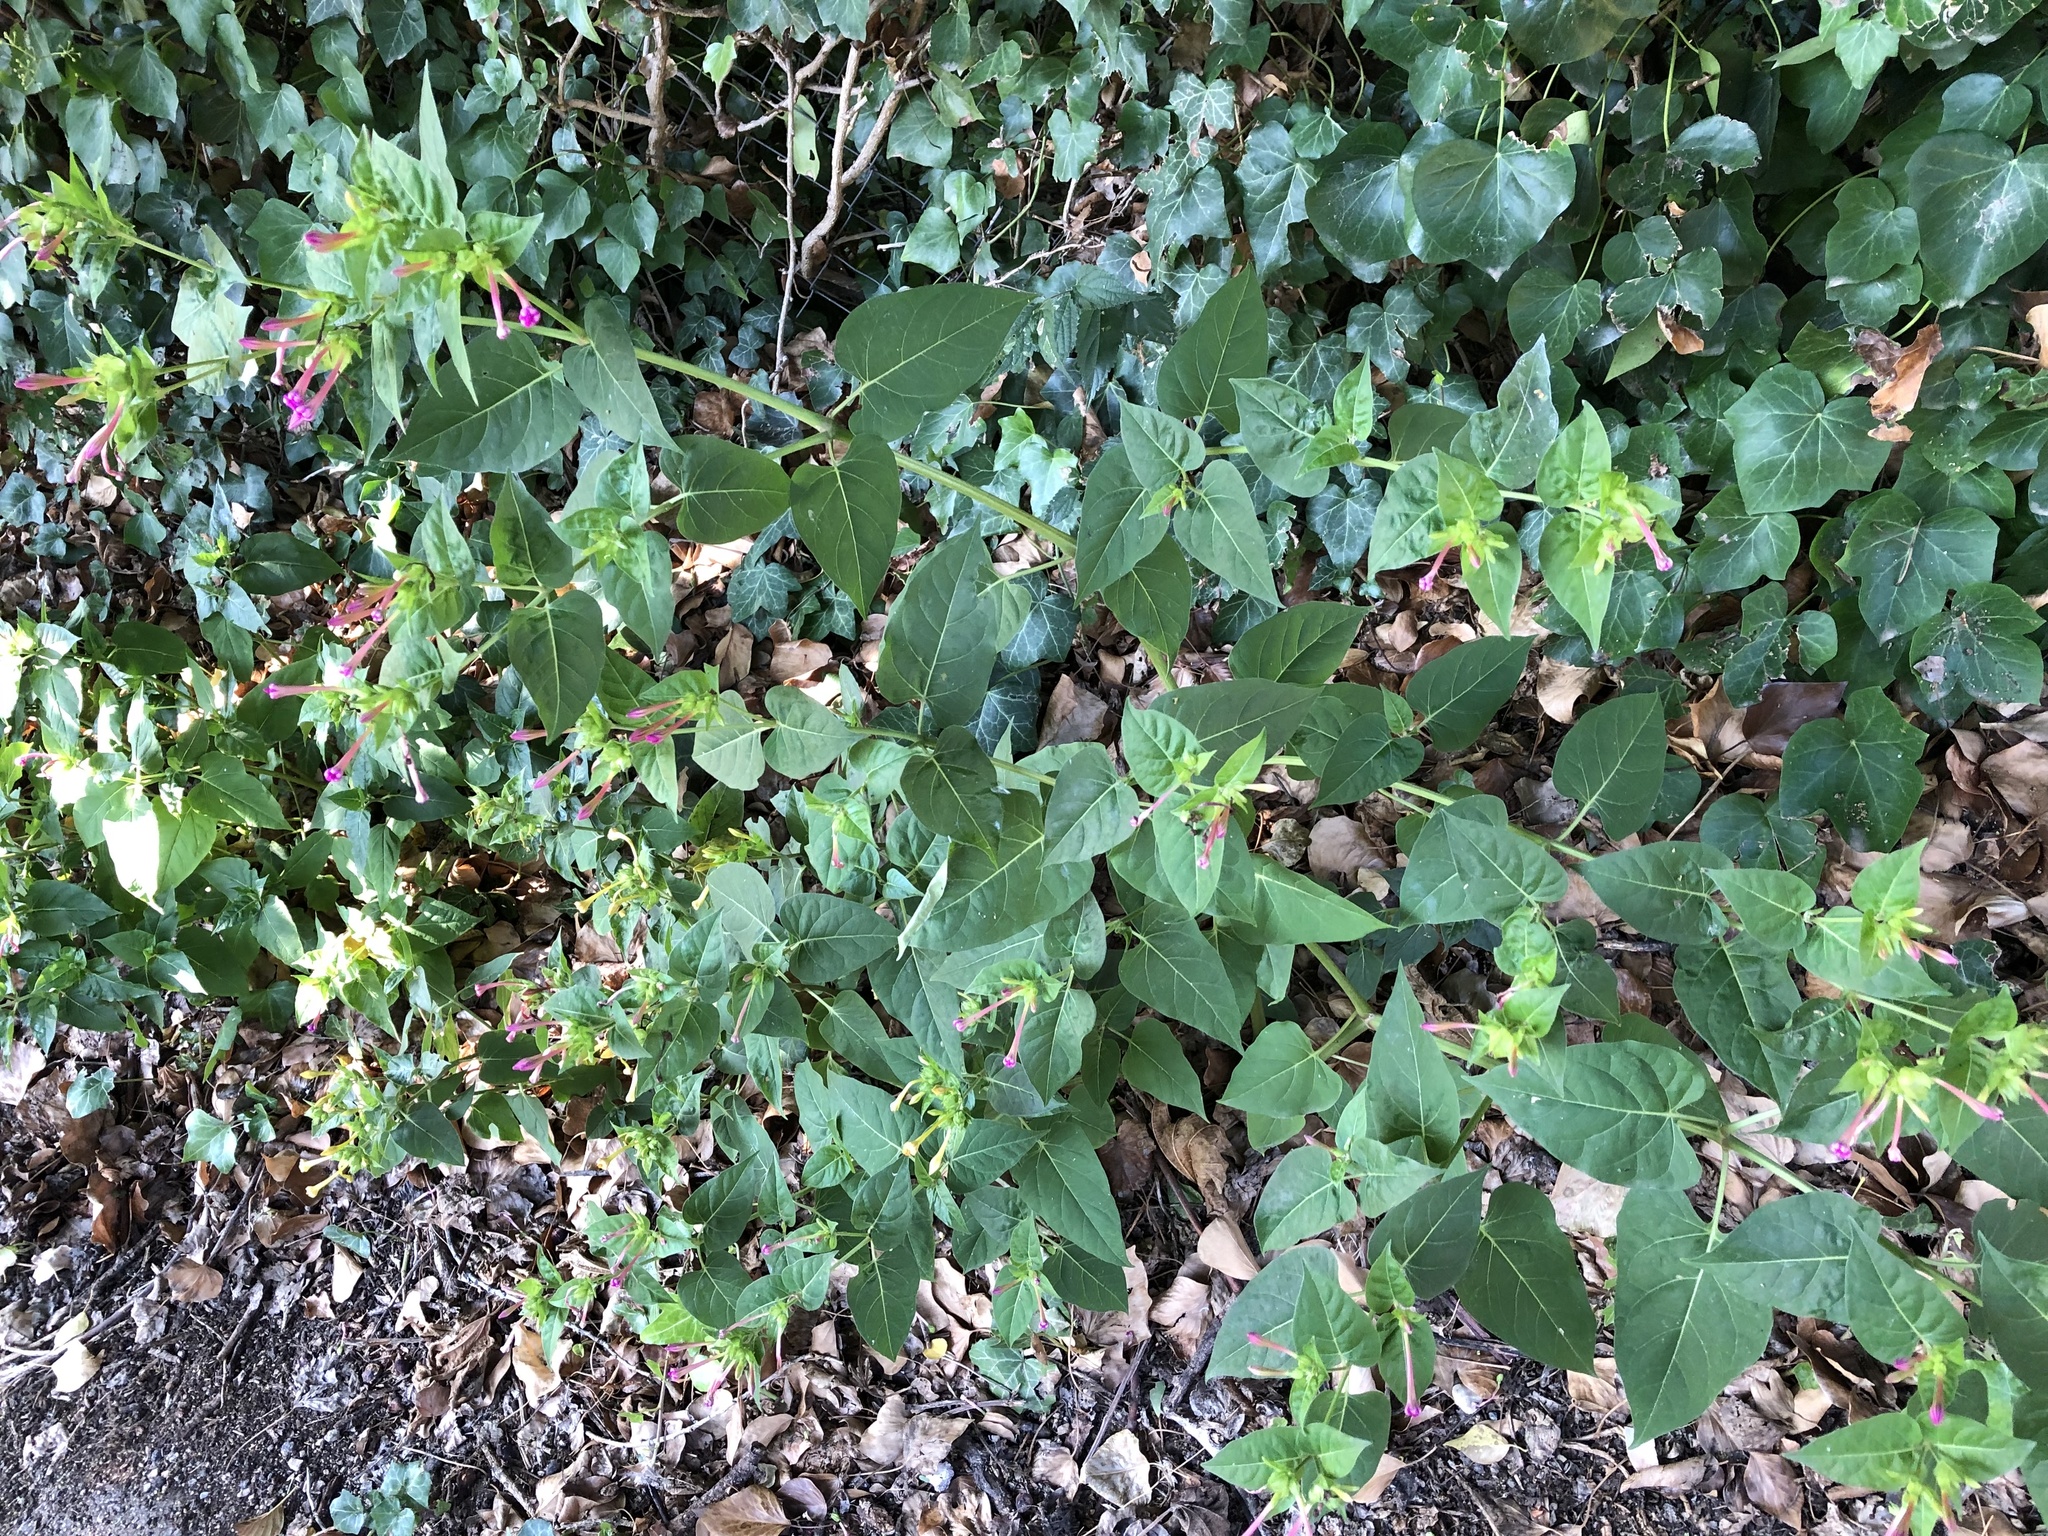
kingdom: Plantae
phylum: Tracheophyta
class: Magnoliopsida
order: Caryophyllales
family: Nyctaginaceae
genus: Mirabilis
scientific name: Mirabilis jalapa
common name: Marvel-of-peru
